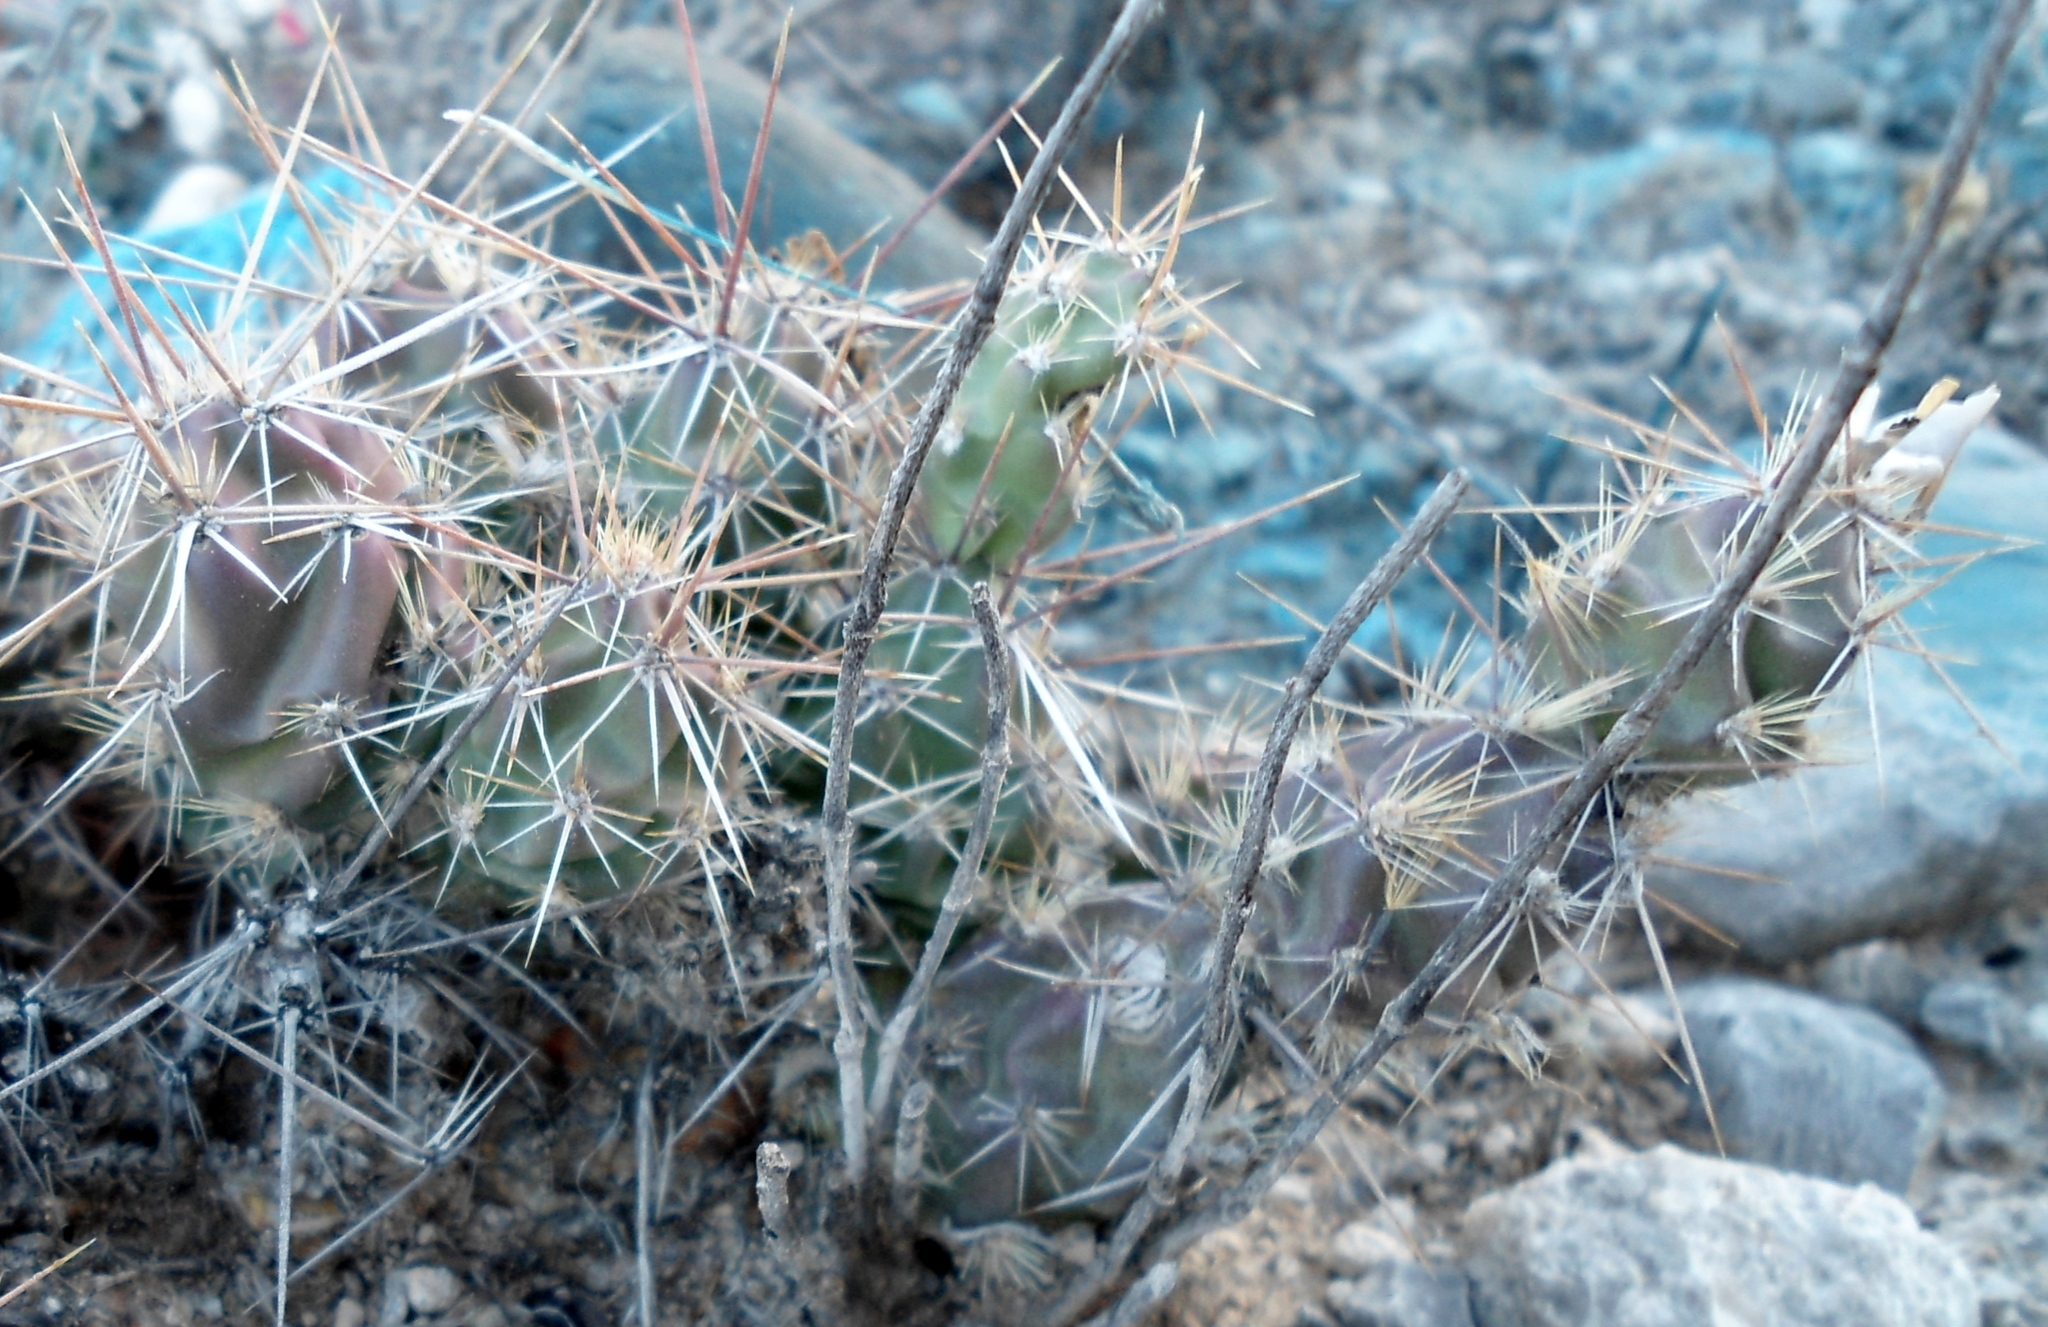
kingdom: Plantae
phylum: Tracheophyta
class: Magnoliopsida
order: Caryophyllales
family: Cactaceae
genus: Grusonia
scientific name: Grusonia aggeria
